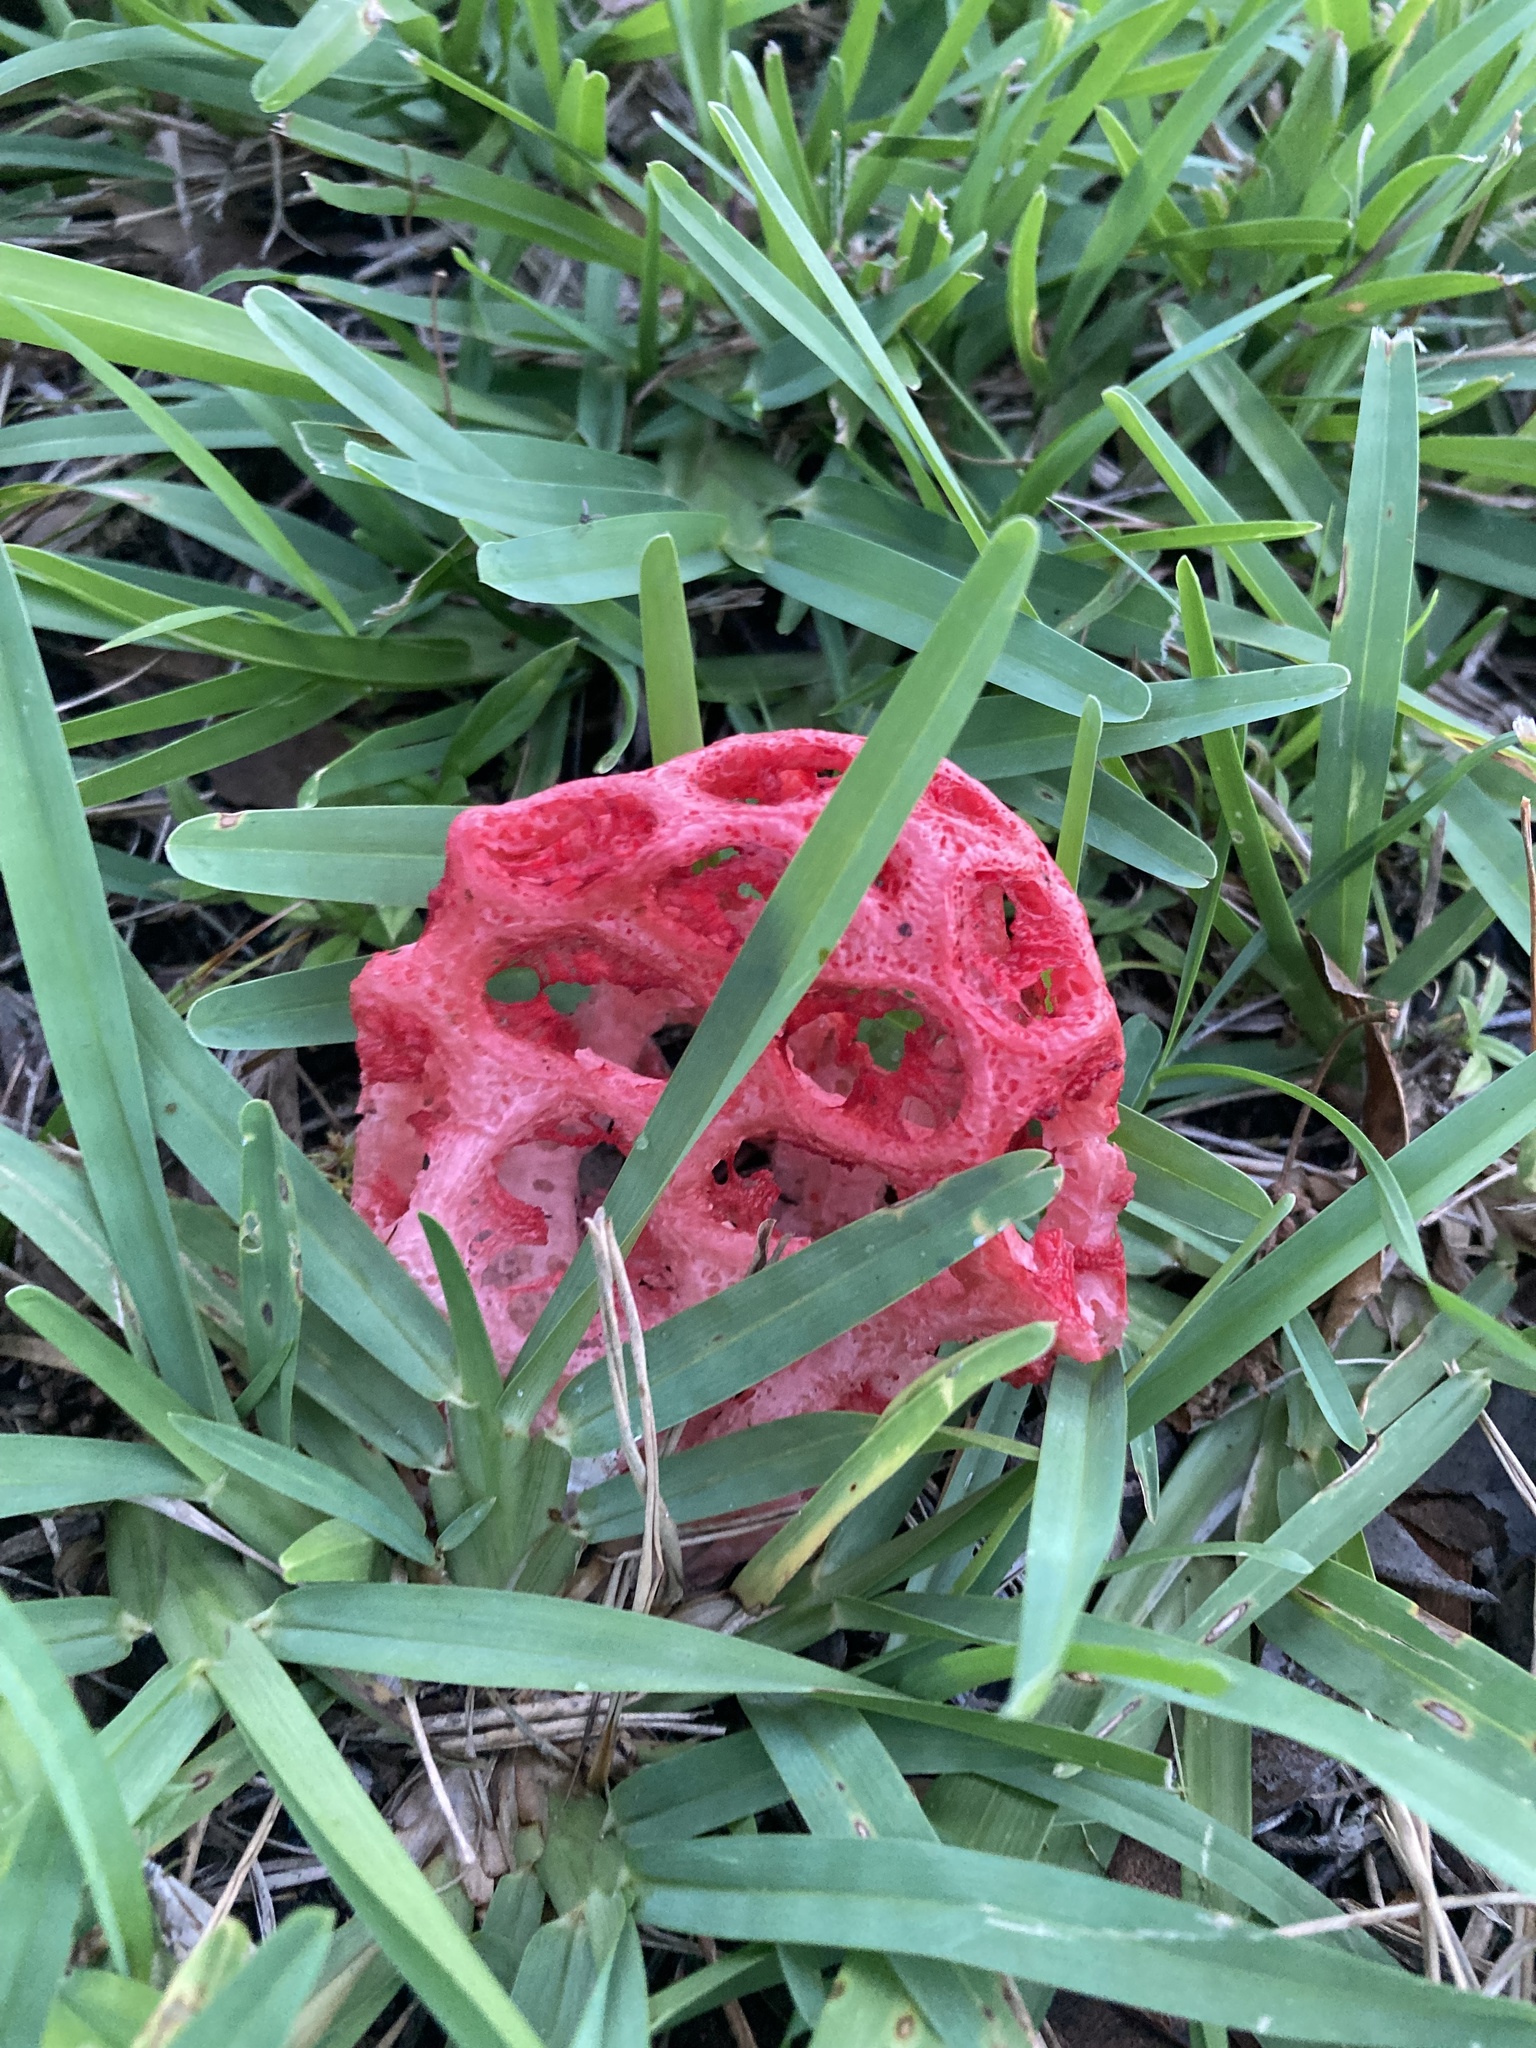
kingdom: Fungi
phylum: Basidiomycota
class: Agaricomycetes
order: Phallales
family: Phallaceae
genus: Clathrus
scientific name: Clathrus crispatus
